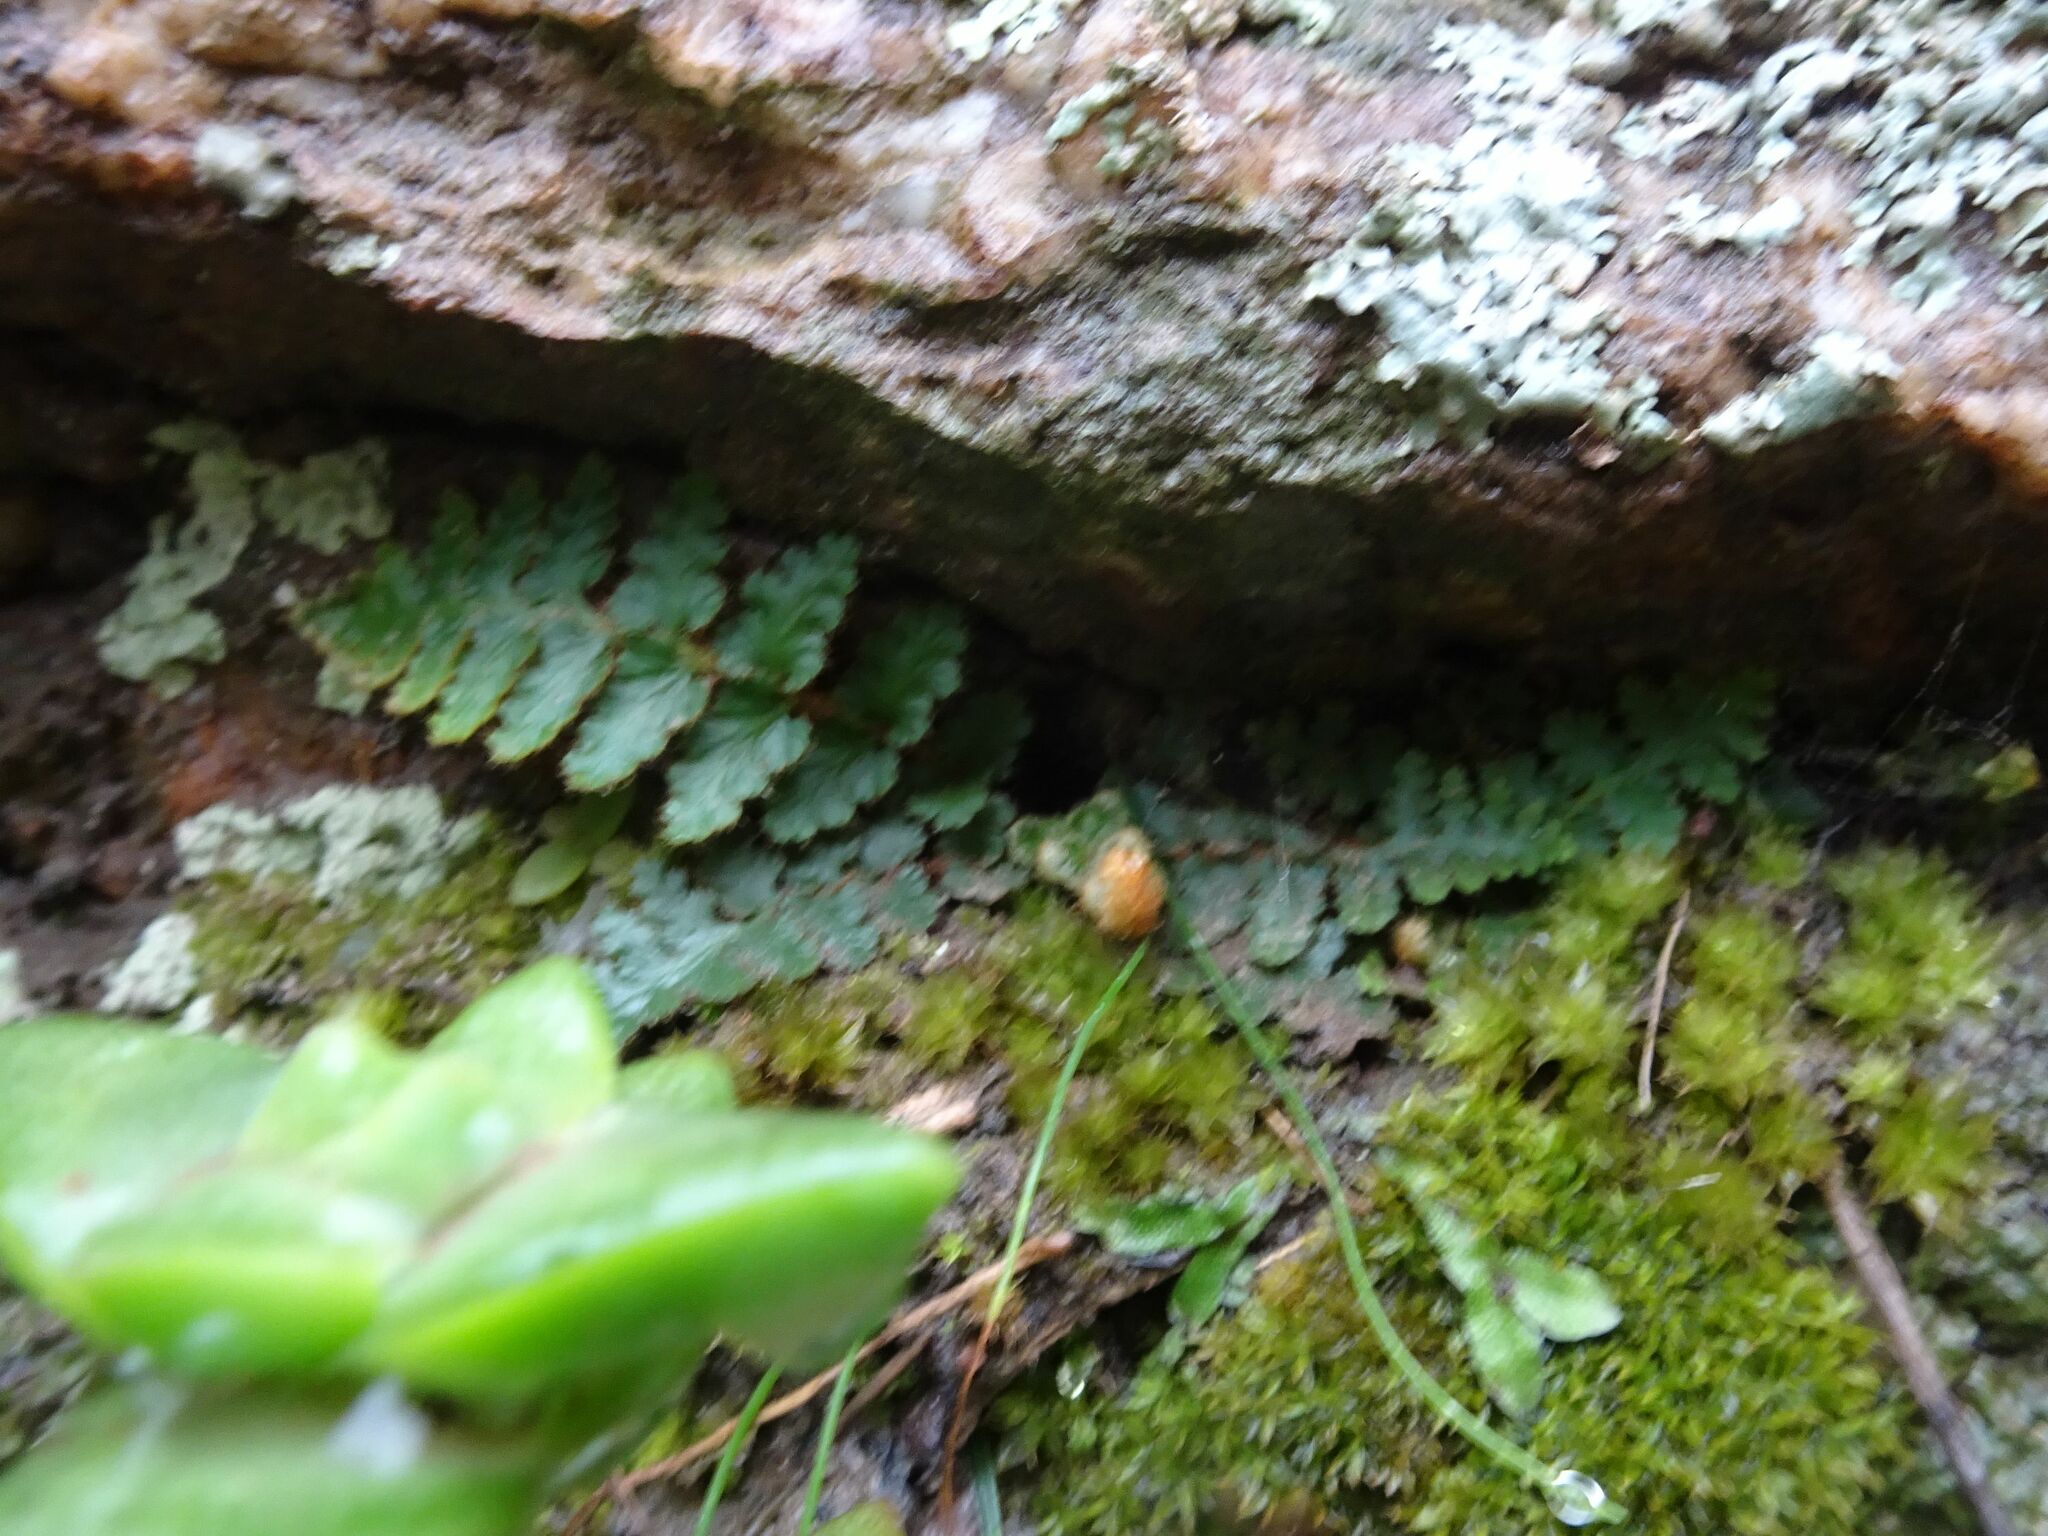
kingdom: Plantae
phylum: Tracheophyta
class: Polypodiopsida
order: Polypodiales
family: Aspleniaceae
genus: Asplenium
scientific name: Asplenium cordatum
